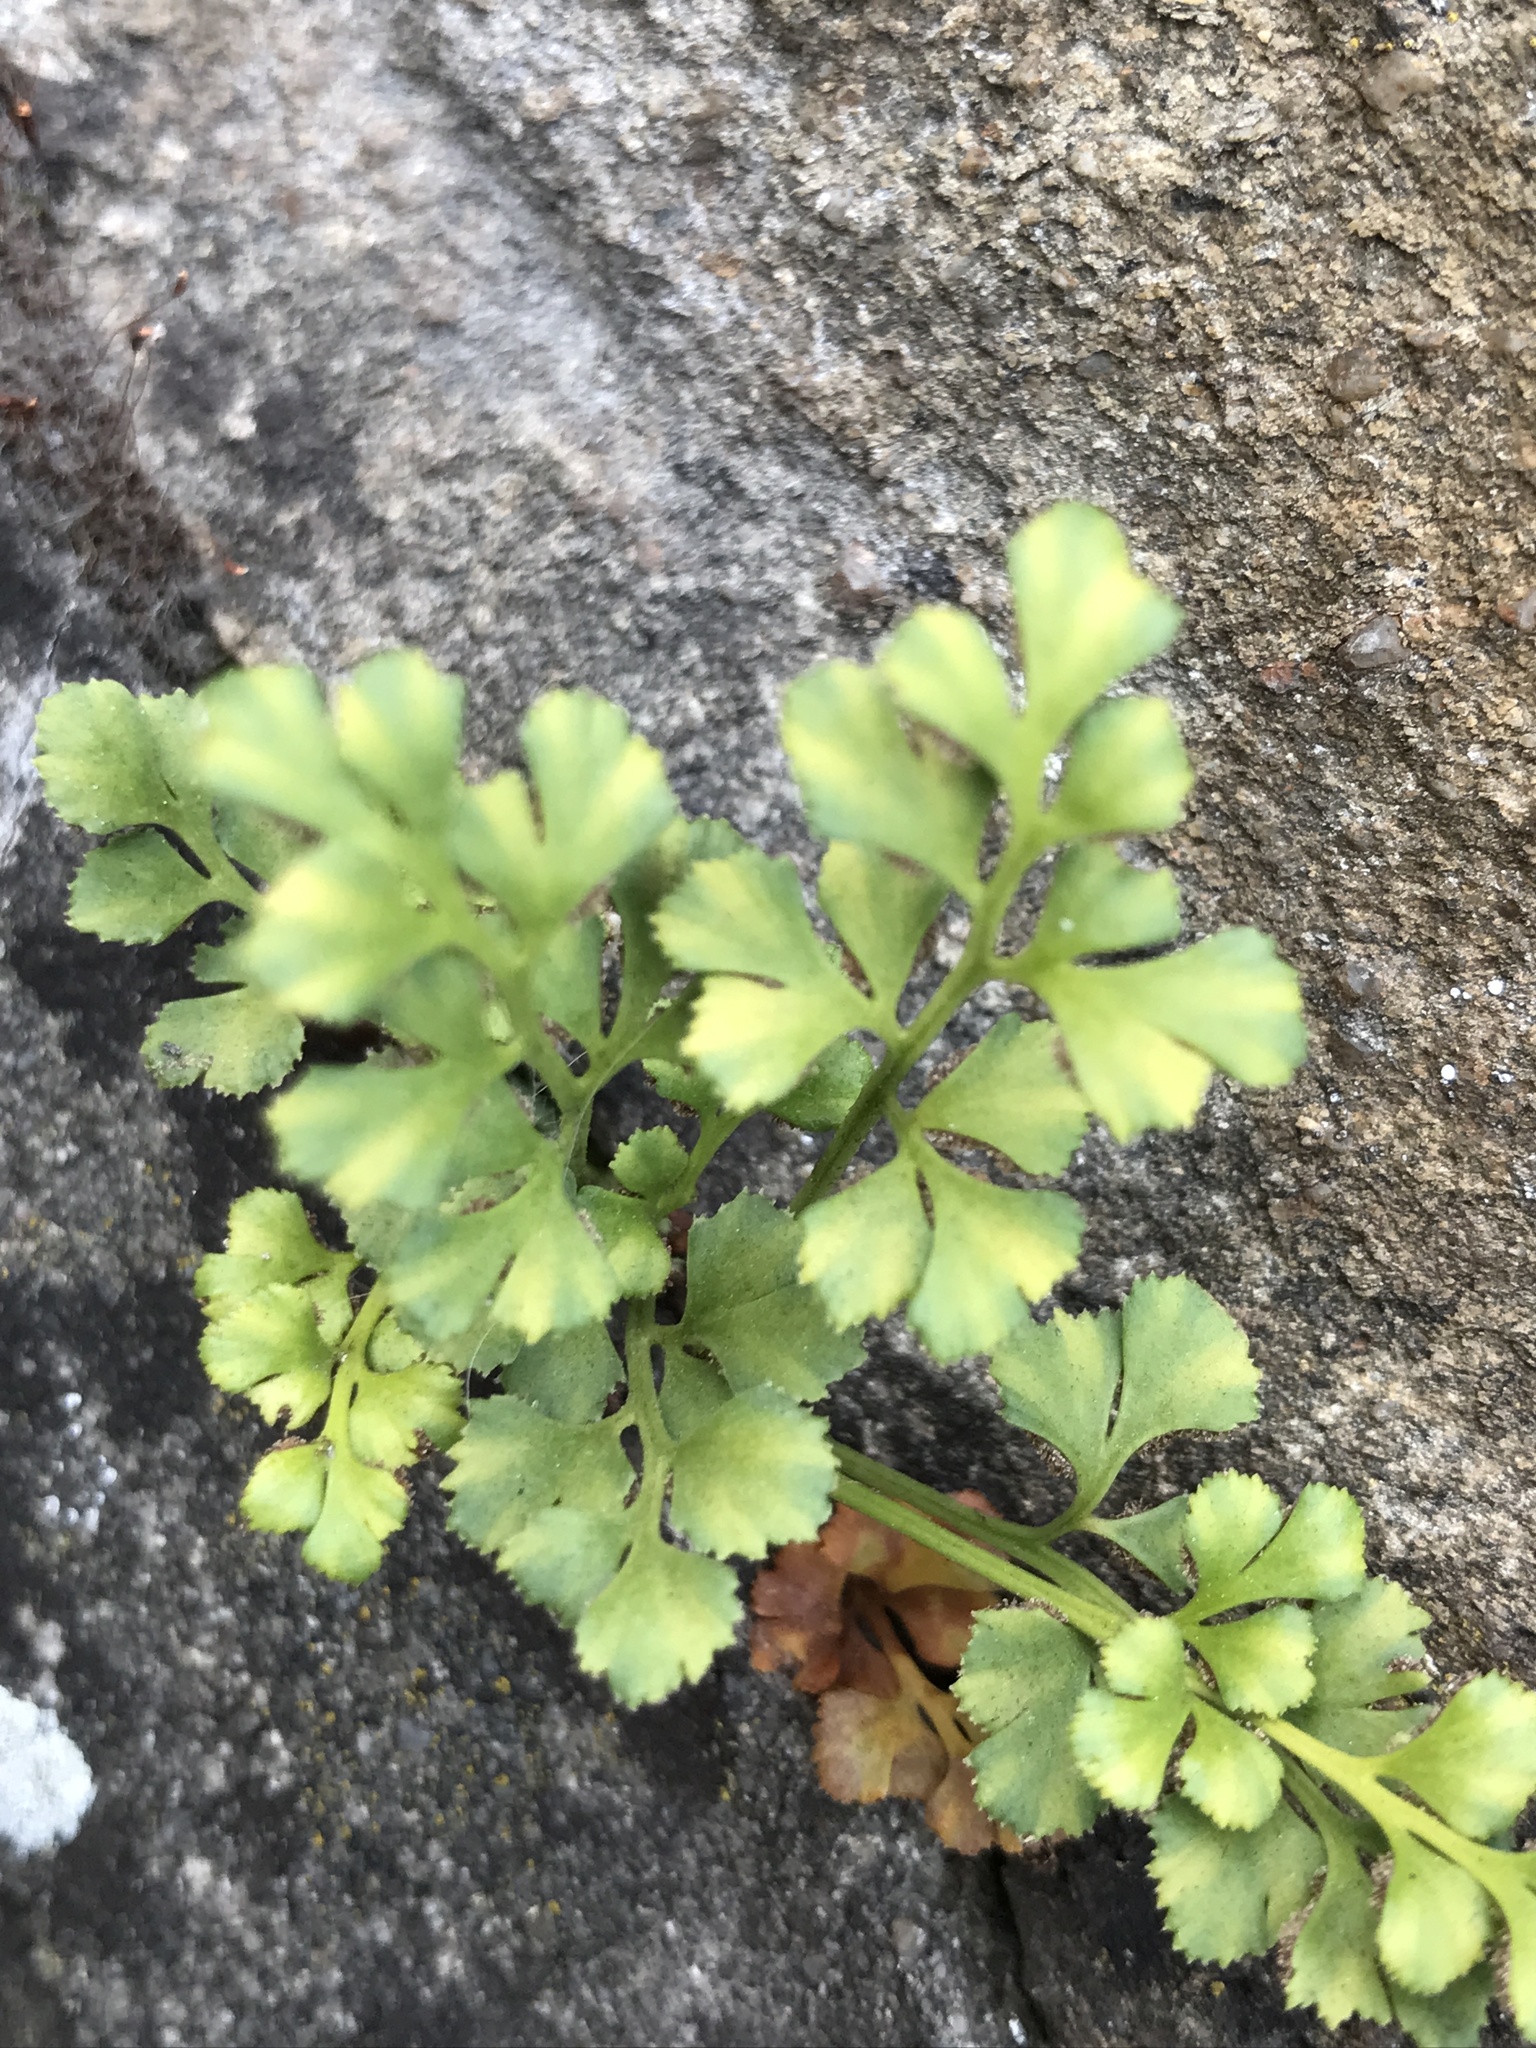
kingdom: Plantae
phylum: Tracheophyta
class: Polypodiopsida
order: Polypodiales
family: Aspleniaceae
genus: Asplenium
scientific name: Asplenium ruta-muraria
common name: Wall-rue
